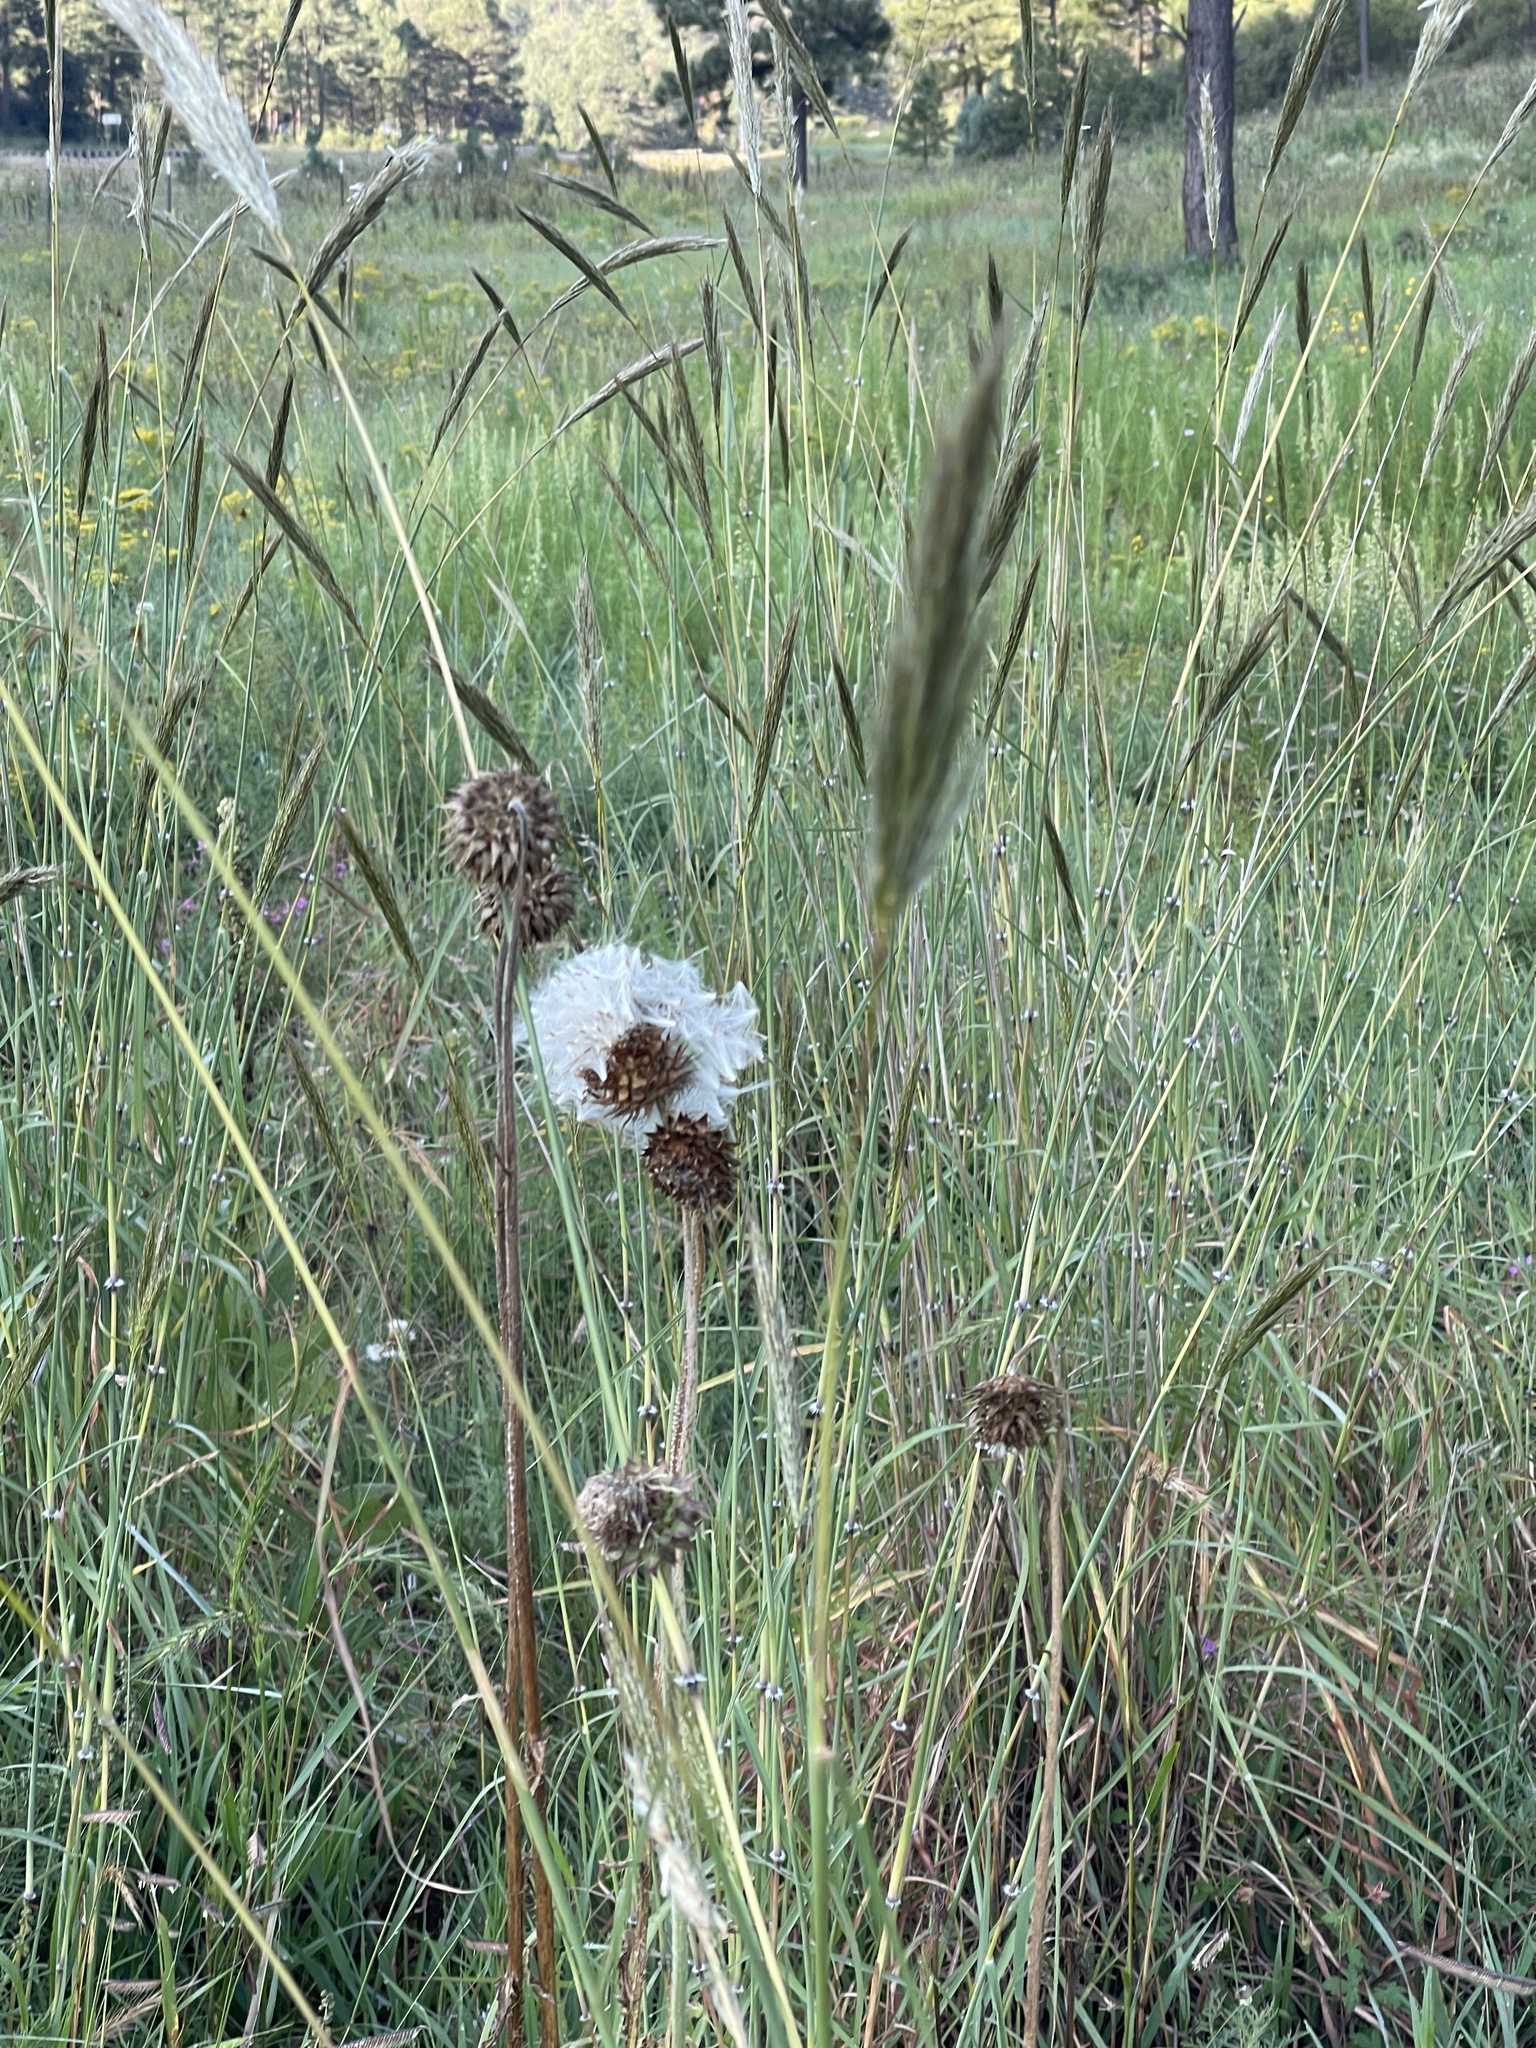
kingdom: Plantae
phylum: Tracheophyta
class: Magnoliopsida
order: Asterales
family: Asteraceae
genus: Carduus
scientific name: Carduus nutans
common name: Musk thistle
